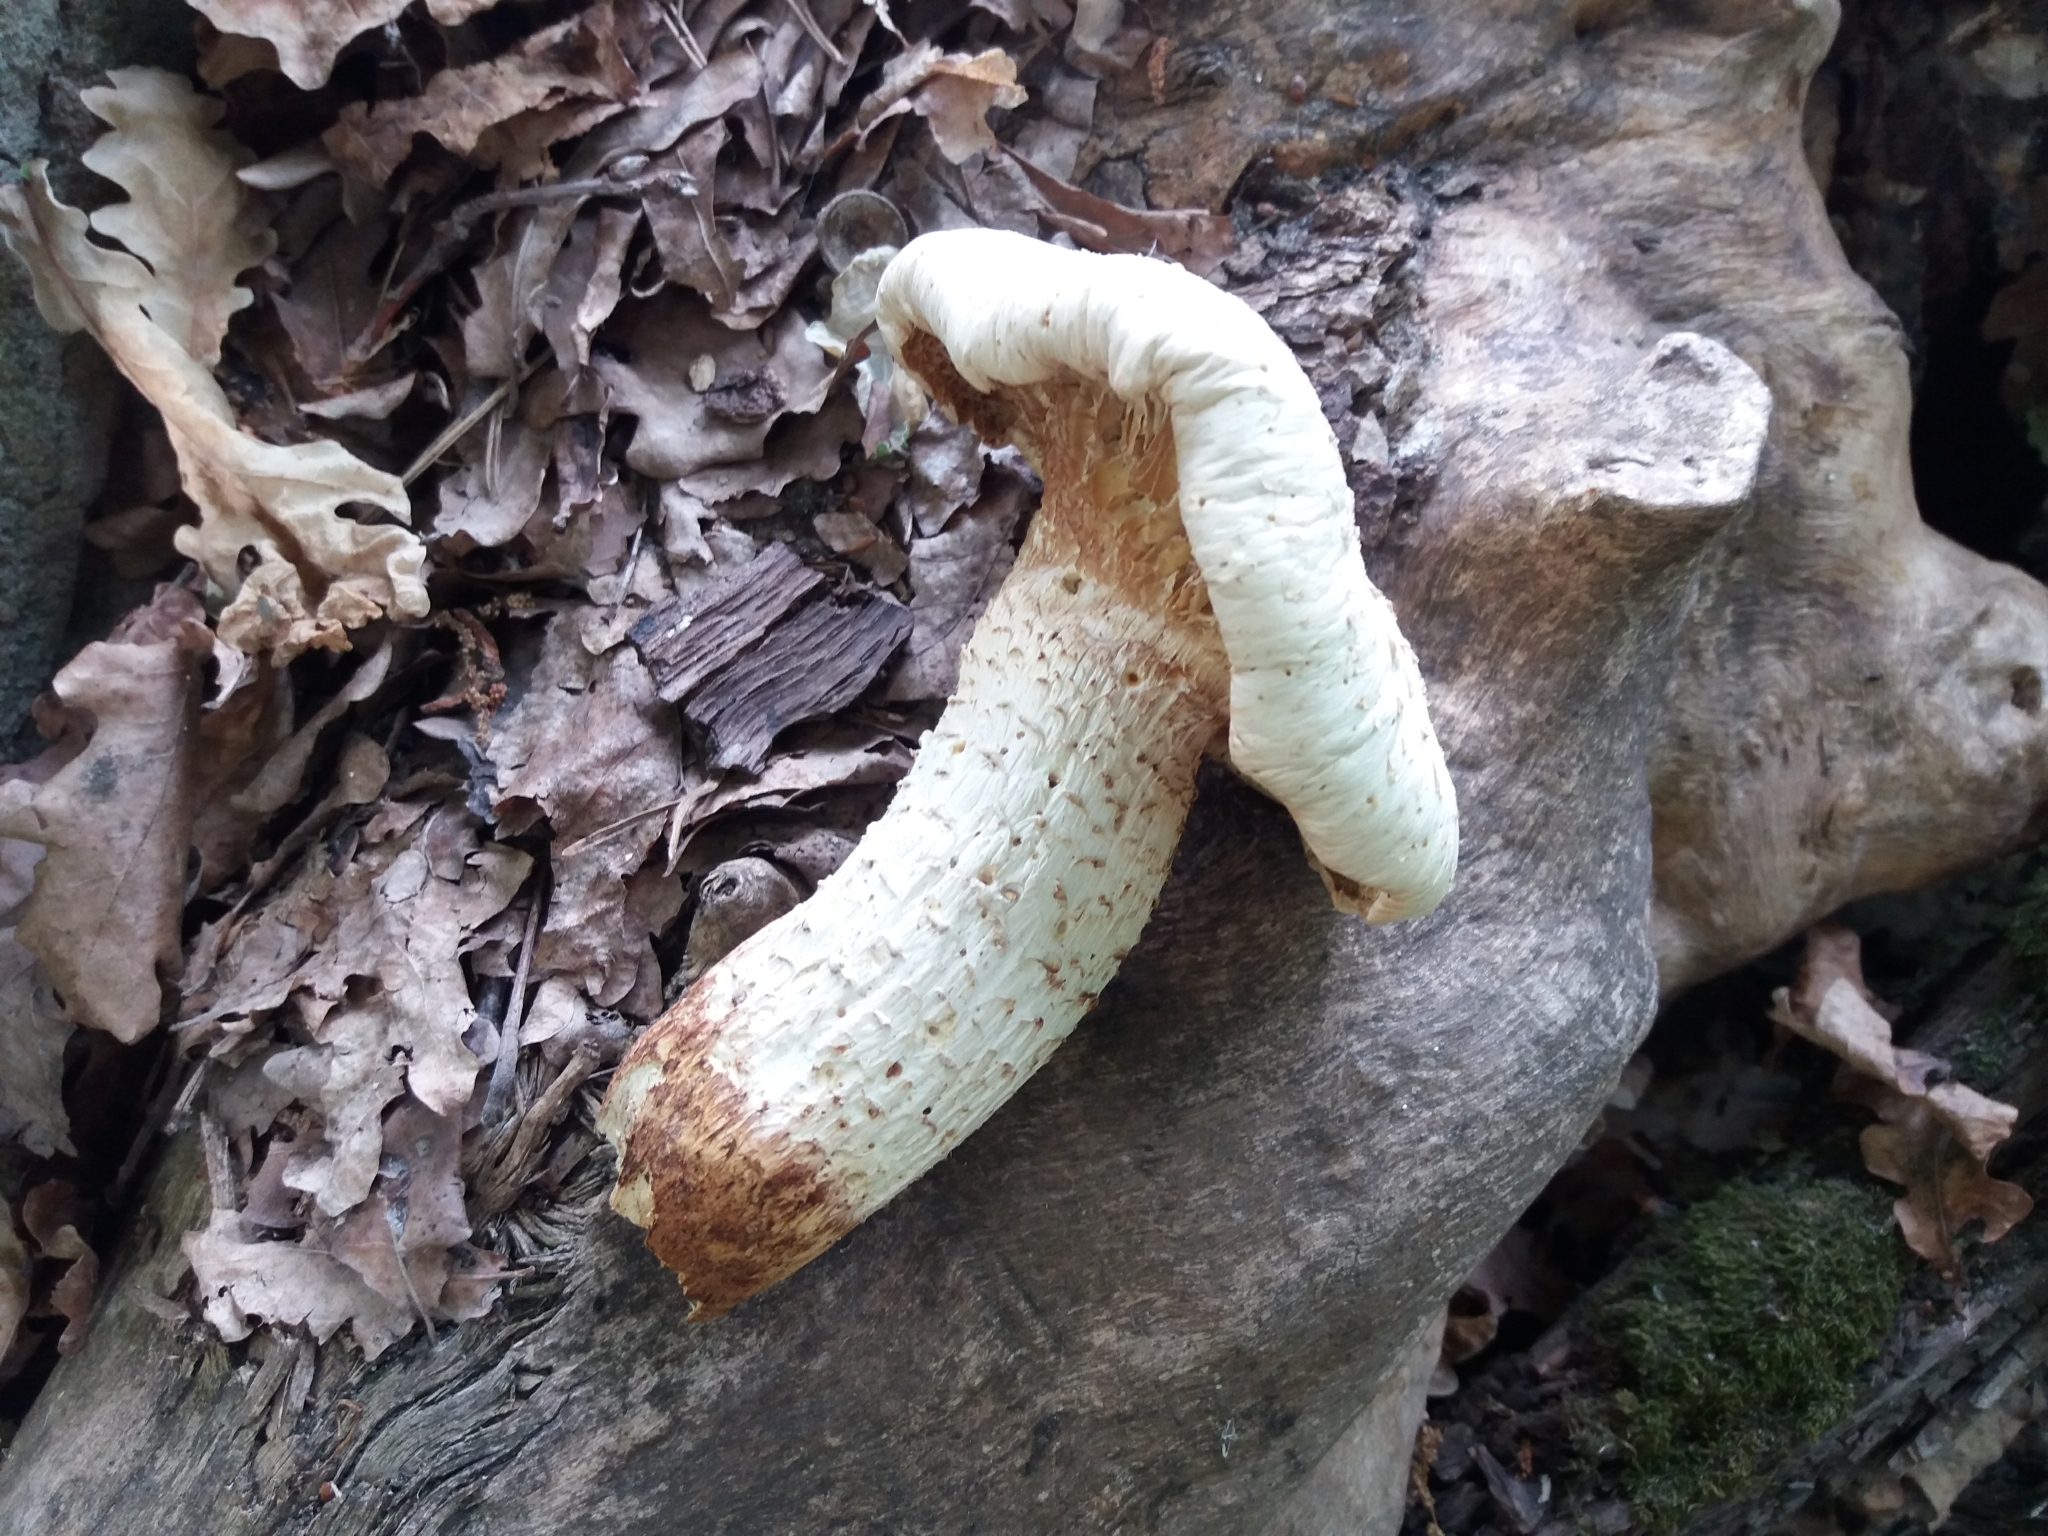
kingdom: Fungi
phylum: Basidiomycota
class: Agaricomycetes
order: Gloeophyllales
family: Gloeophyllaceae
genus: Neolentinus
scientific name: Neolentinus lepideus
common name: Scaly sawgill
